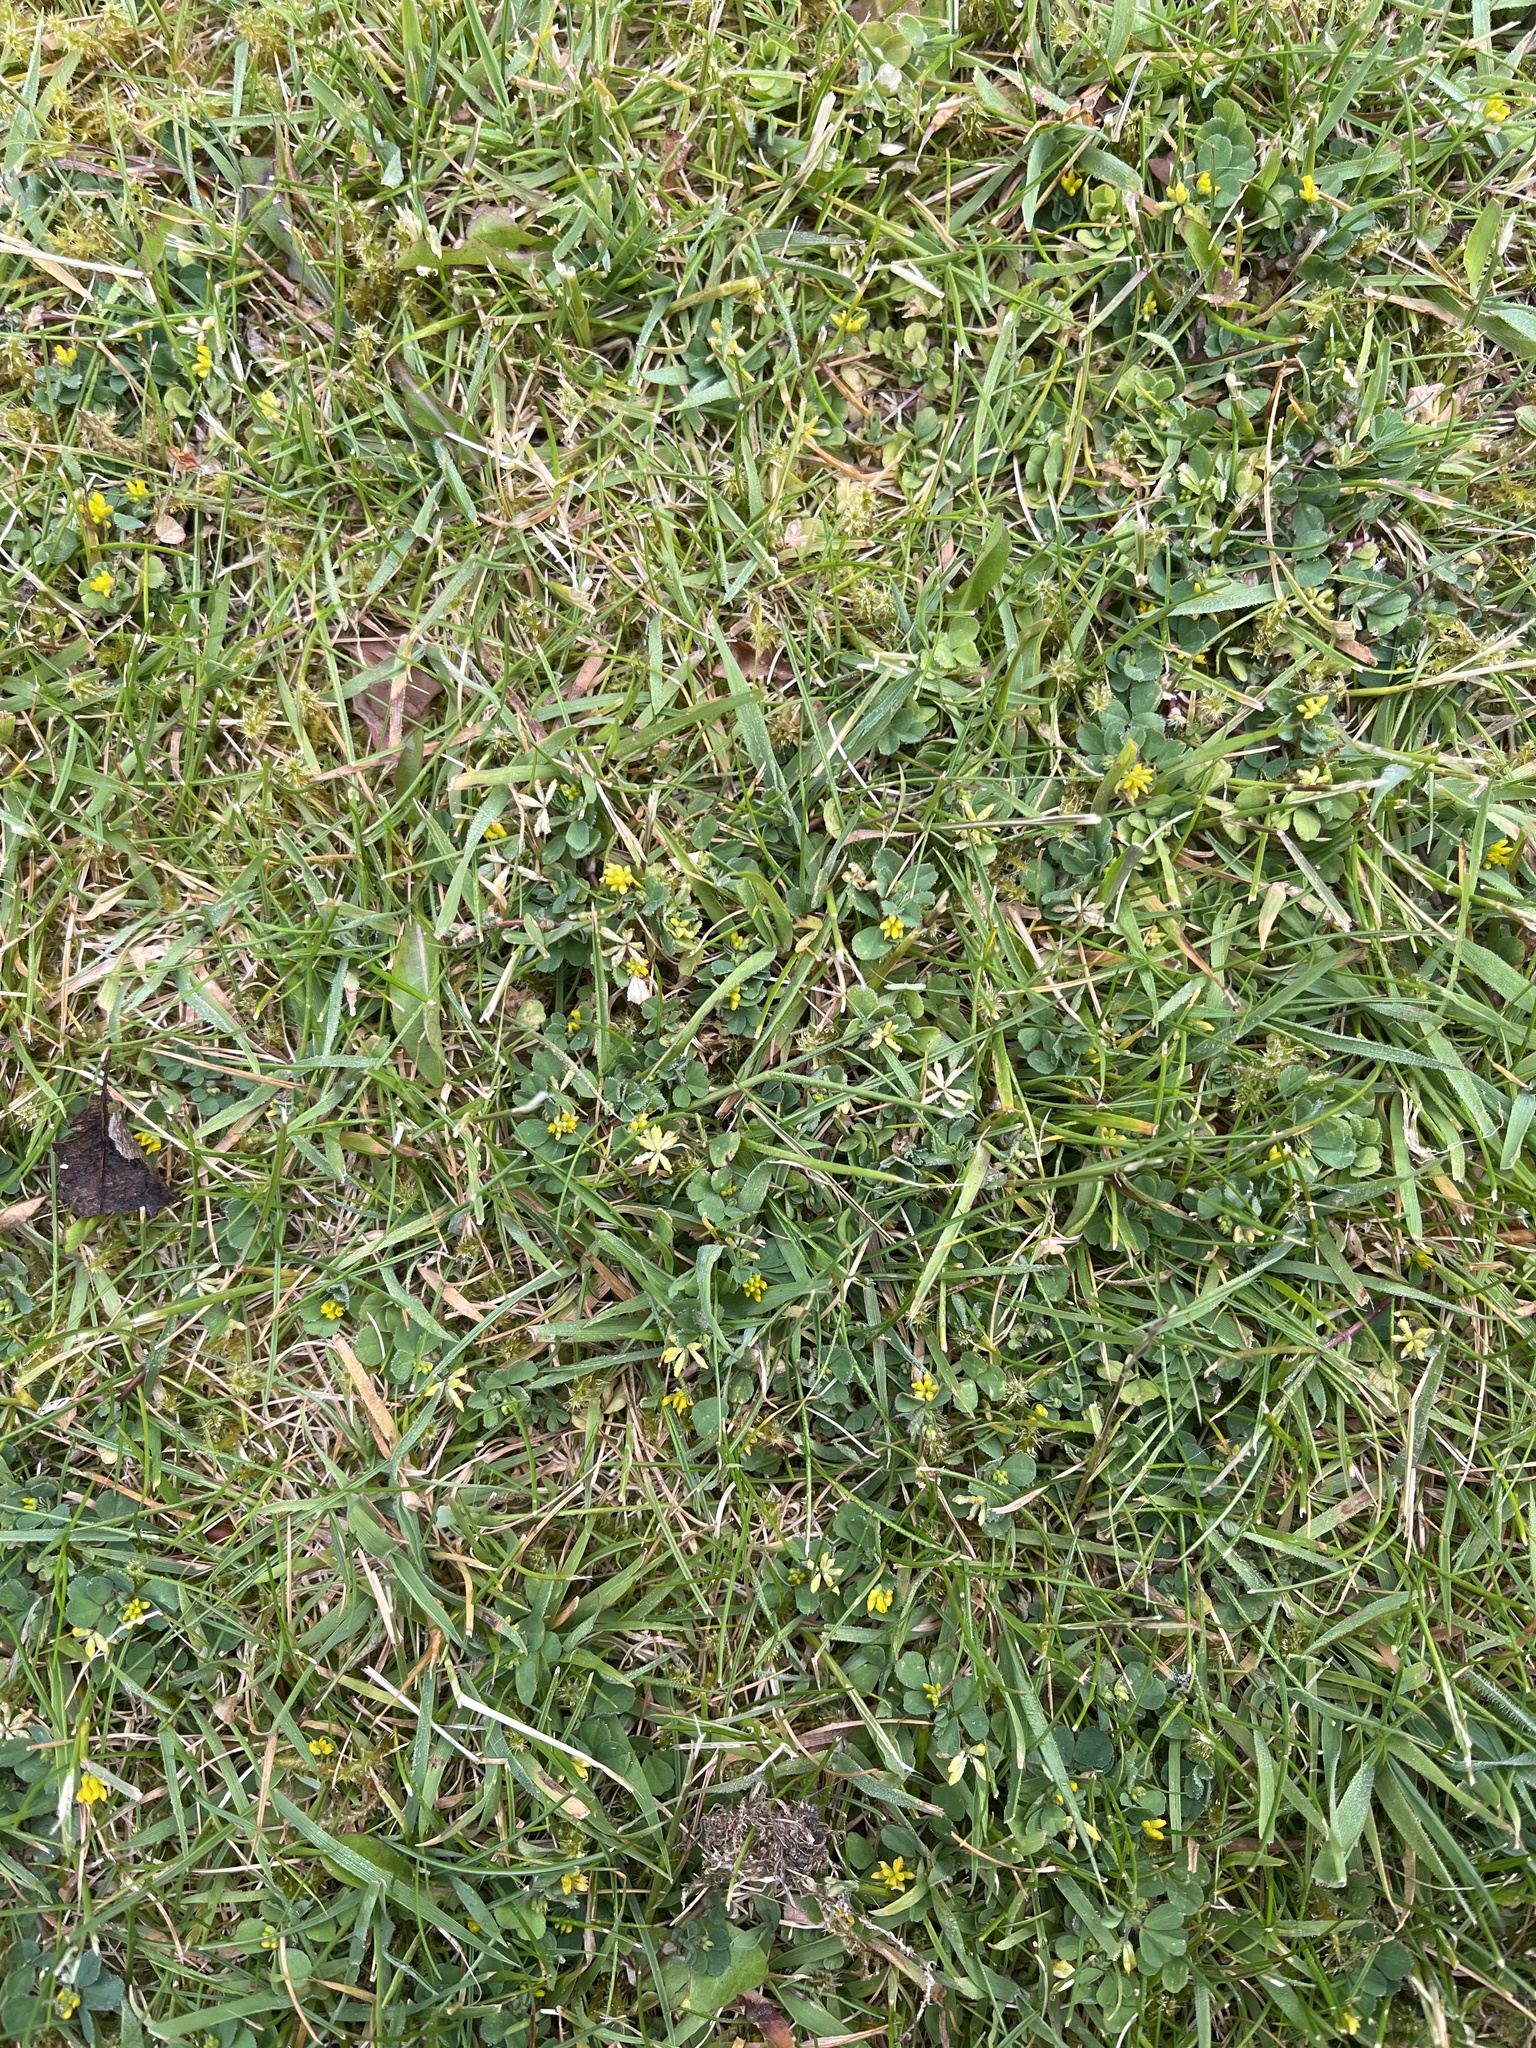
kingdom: Plantae
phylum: Tracheophyta
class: Magnoliopsida
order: Fabales
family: Fabaceae
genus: Trifolium
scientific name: Trifolium dubium
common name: Suckling clover
